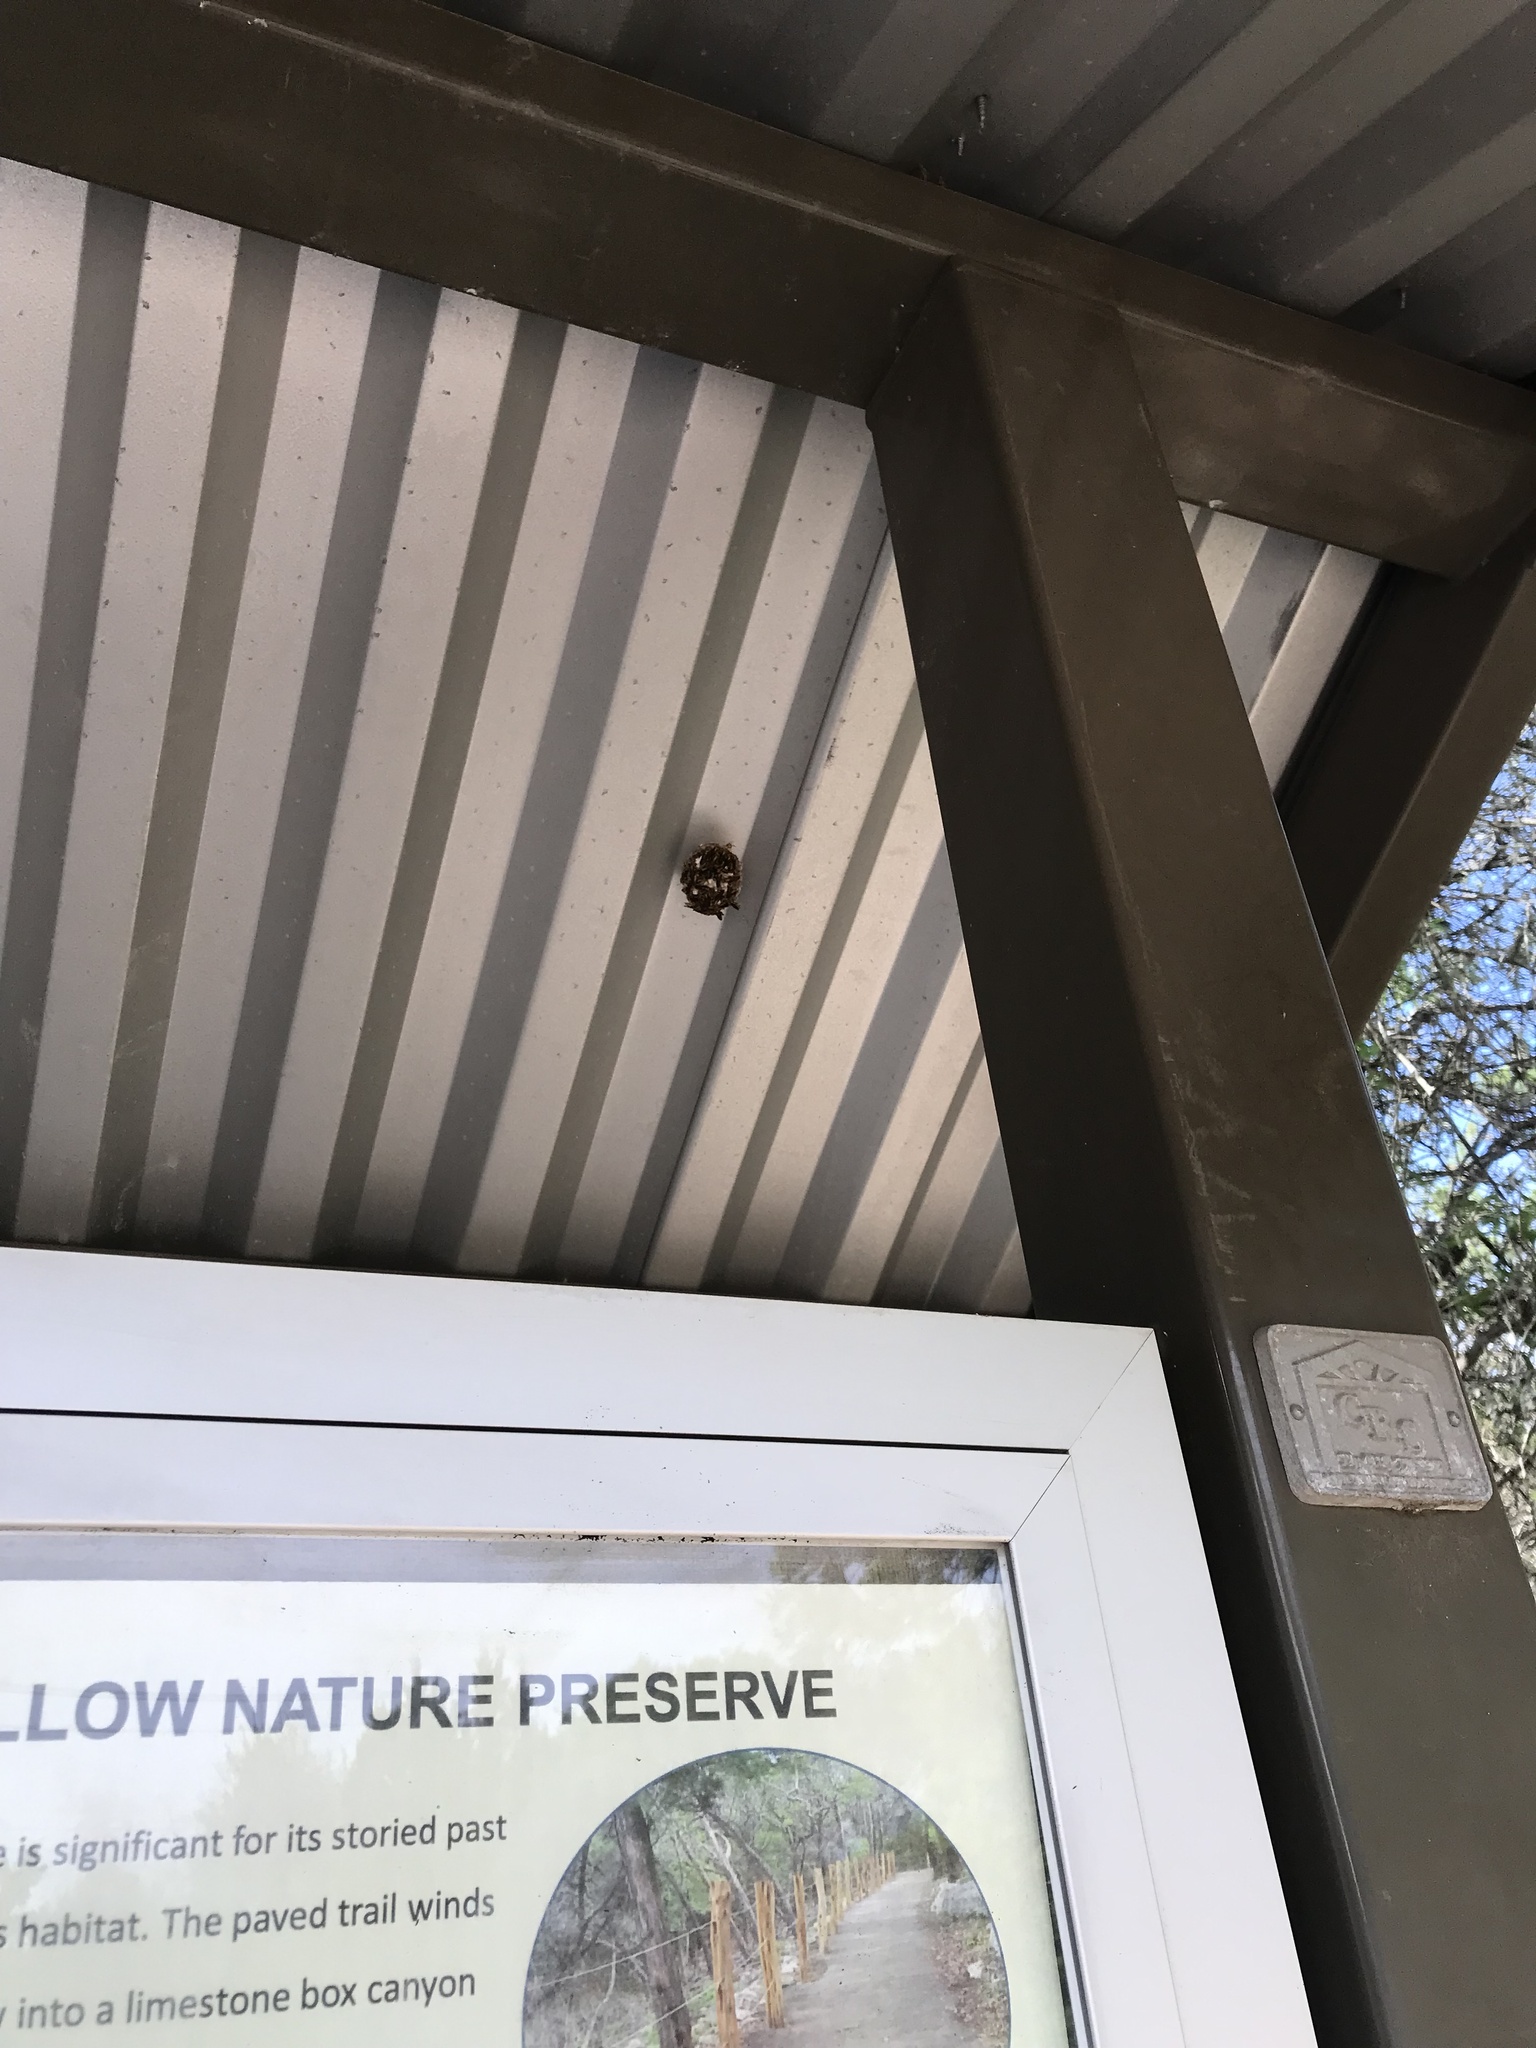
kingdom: Animalia
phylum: Arthropoda
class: Insecta
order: Hymenoptera
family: Eumenidae
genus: Polistes
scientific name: Polistes
